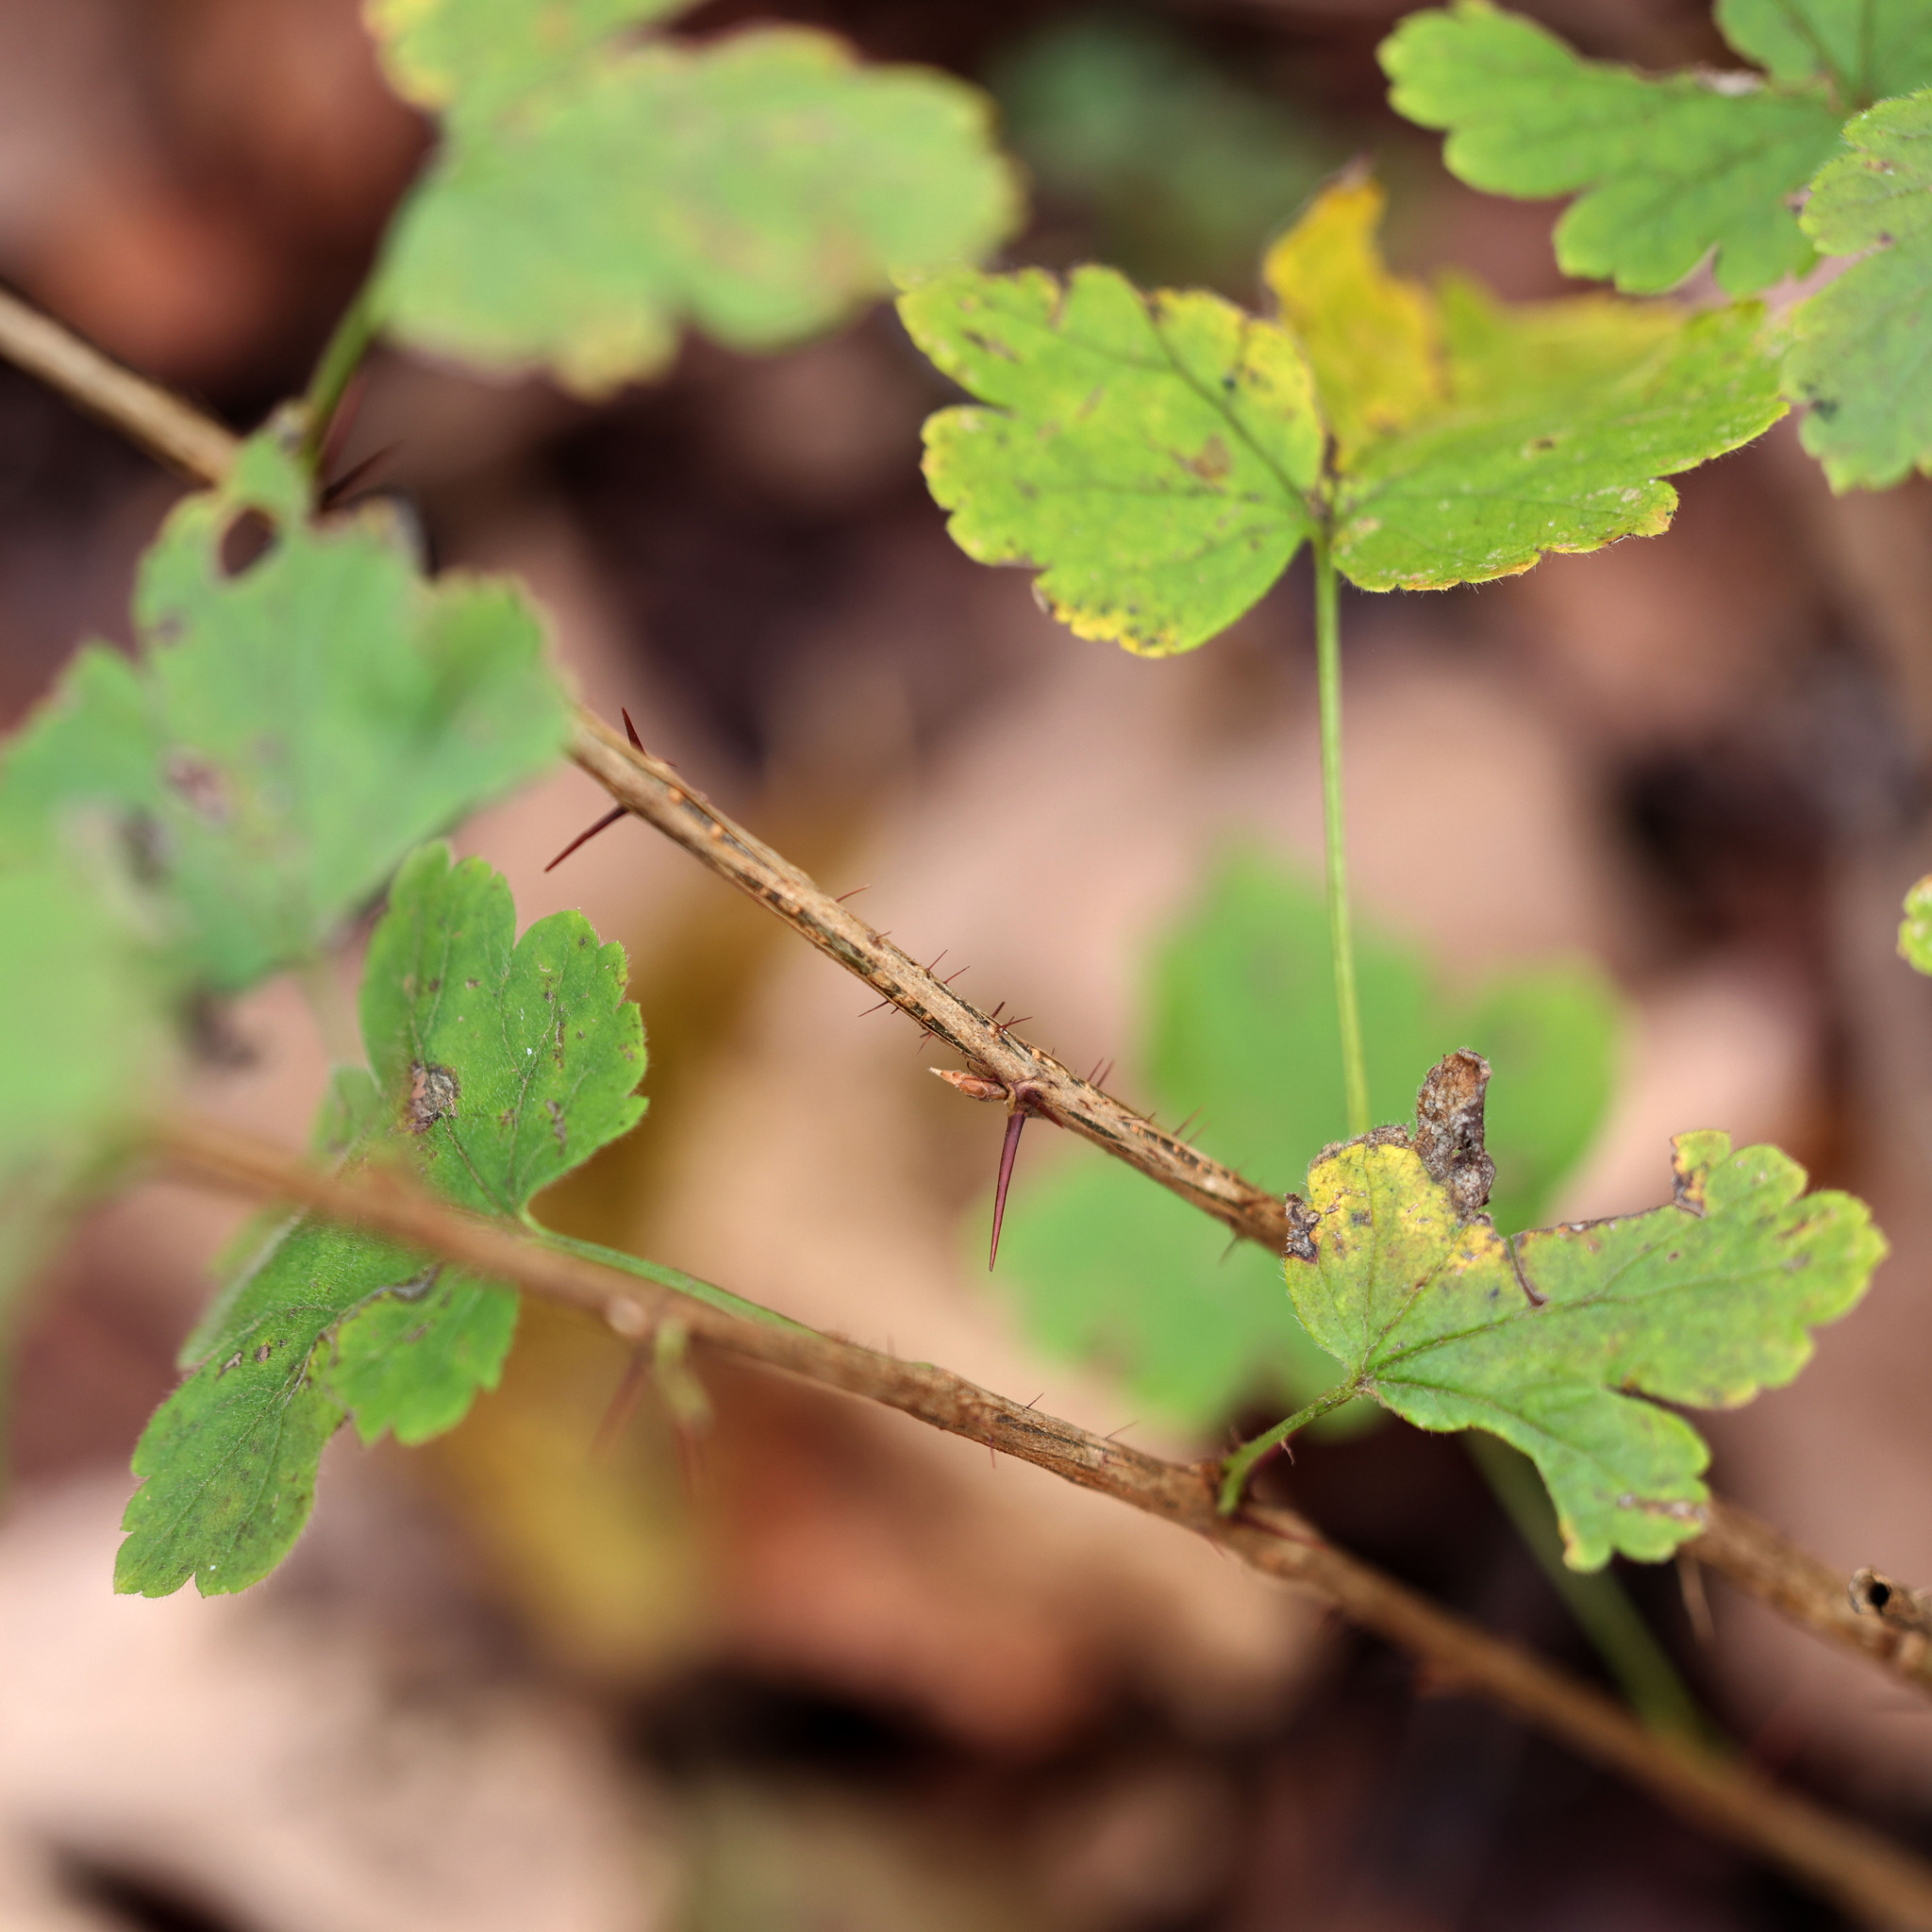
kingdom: Plantae
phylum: Tracheophyta
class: Magnoliopsida
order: Saxifragales
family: Grossulariaceae
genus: Ribes
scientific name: Ribes cynosbati
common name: American gooseberry
